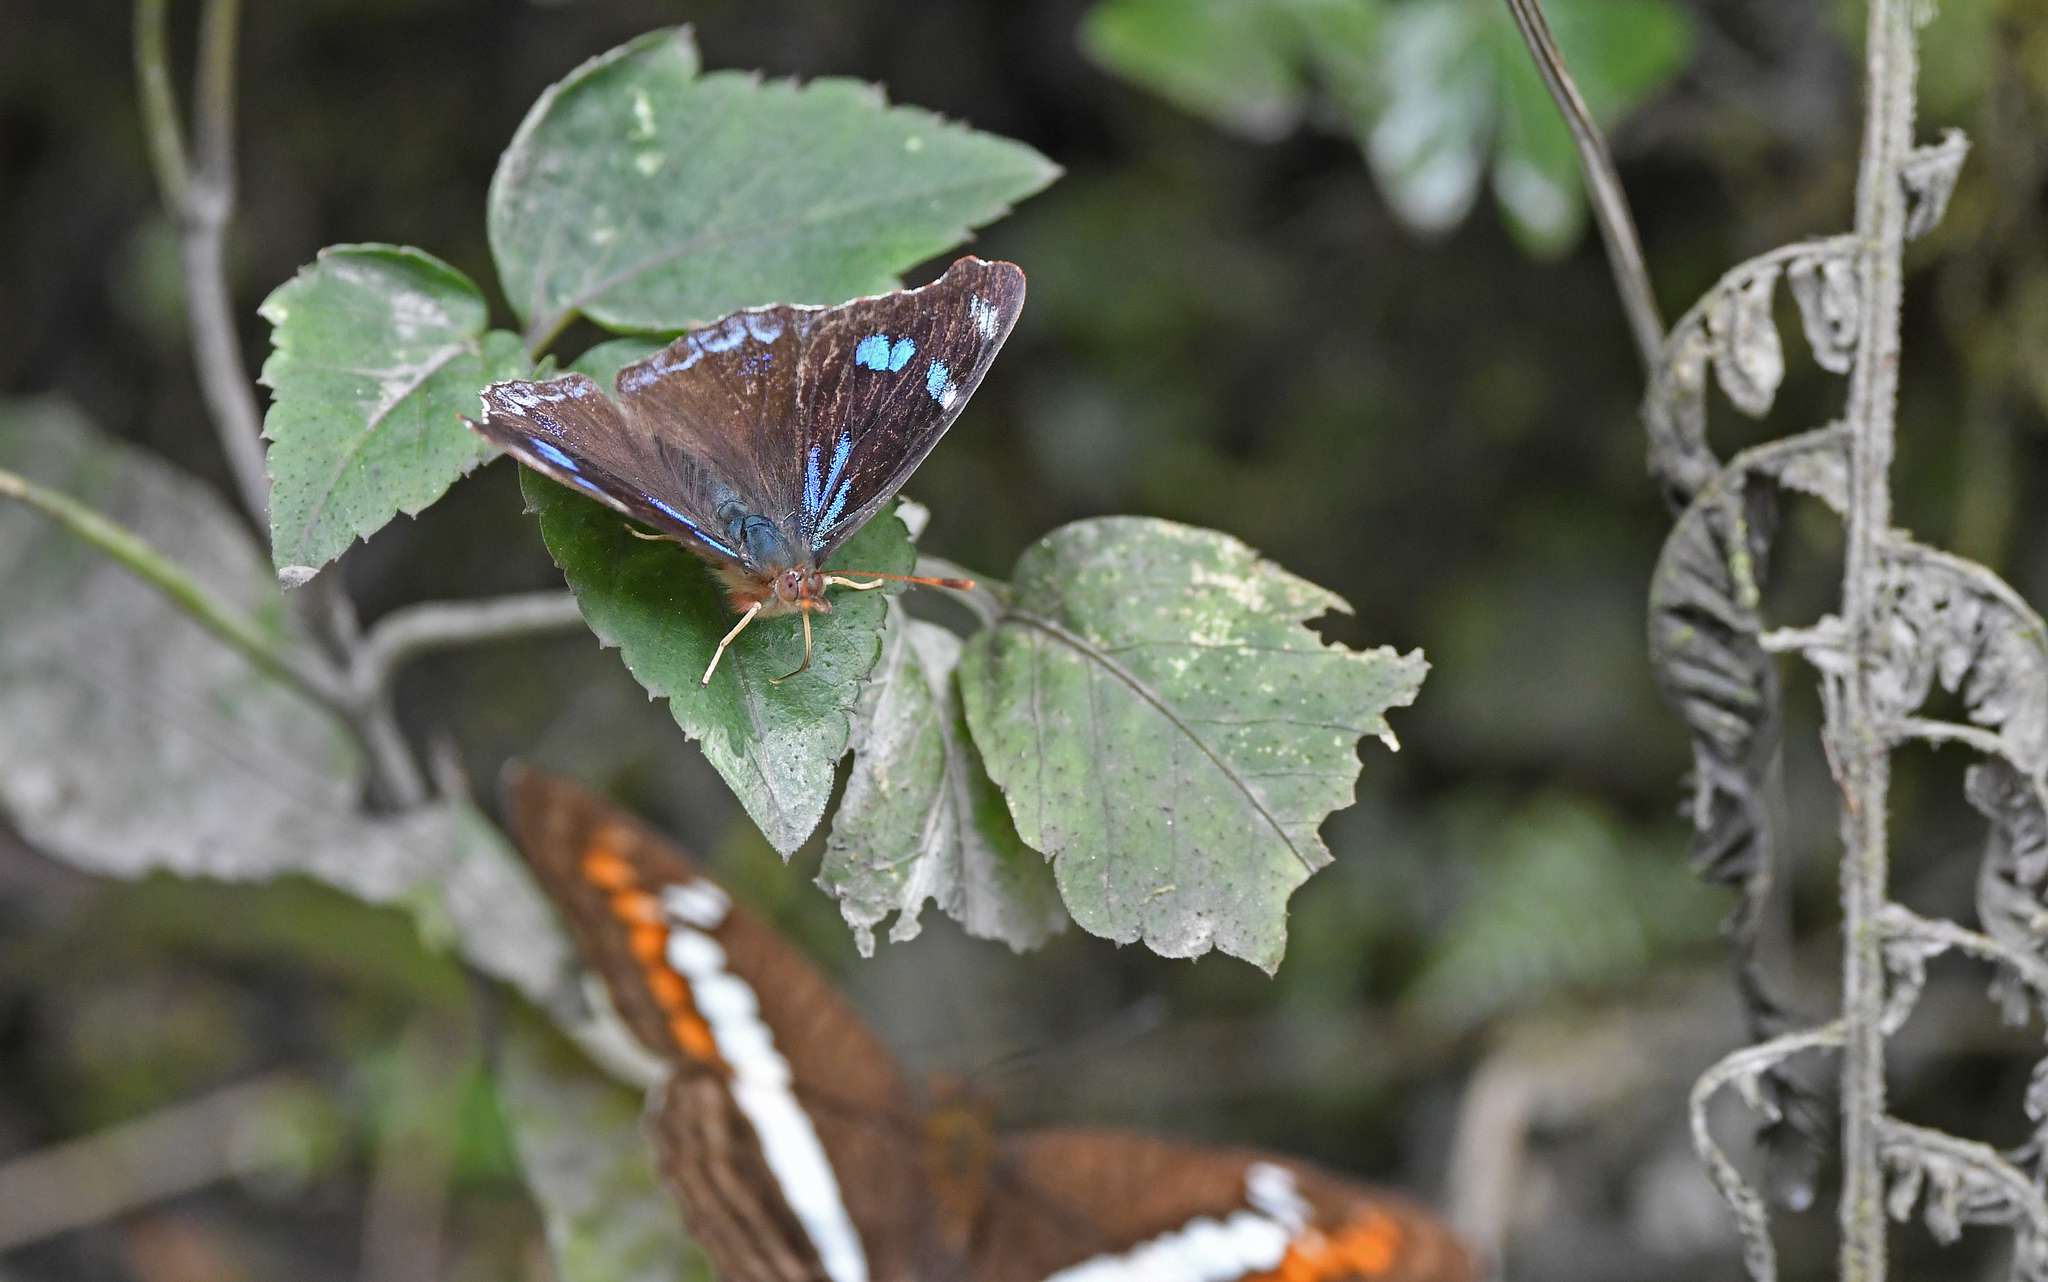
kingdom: Animalia
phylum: Arthropoda
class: Insecta
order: Lepidoptera
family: Nymphalidae
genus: Perisama
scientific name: Perisama diotima
